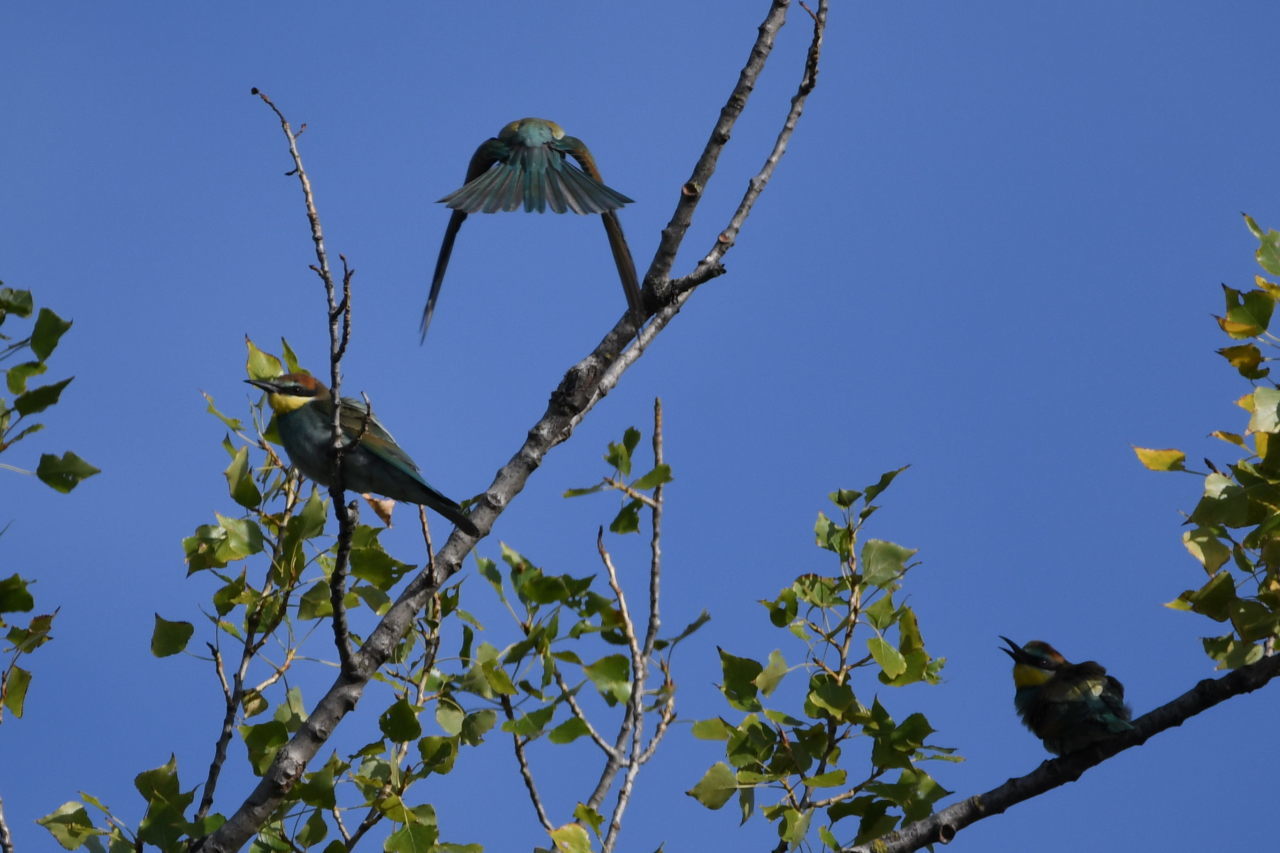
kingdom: Animalia
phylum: Chordata
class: Aves
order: Coraciiformes
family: Meropidae
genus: Merops
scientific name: Merops apiaster
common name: European bee-eater
